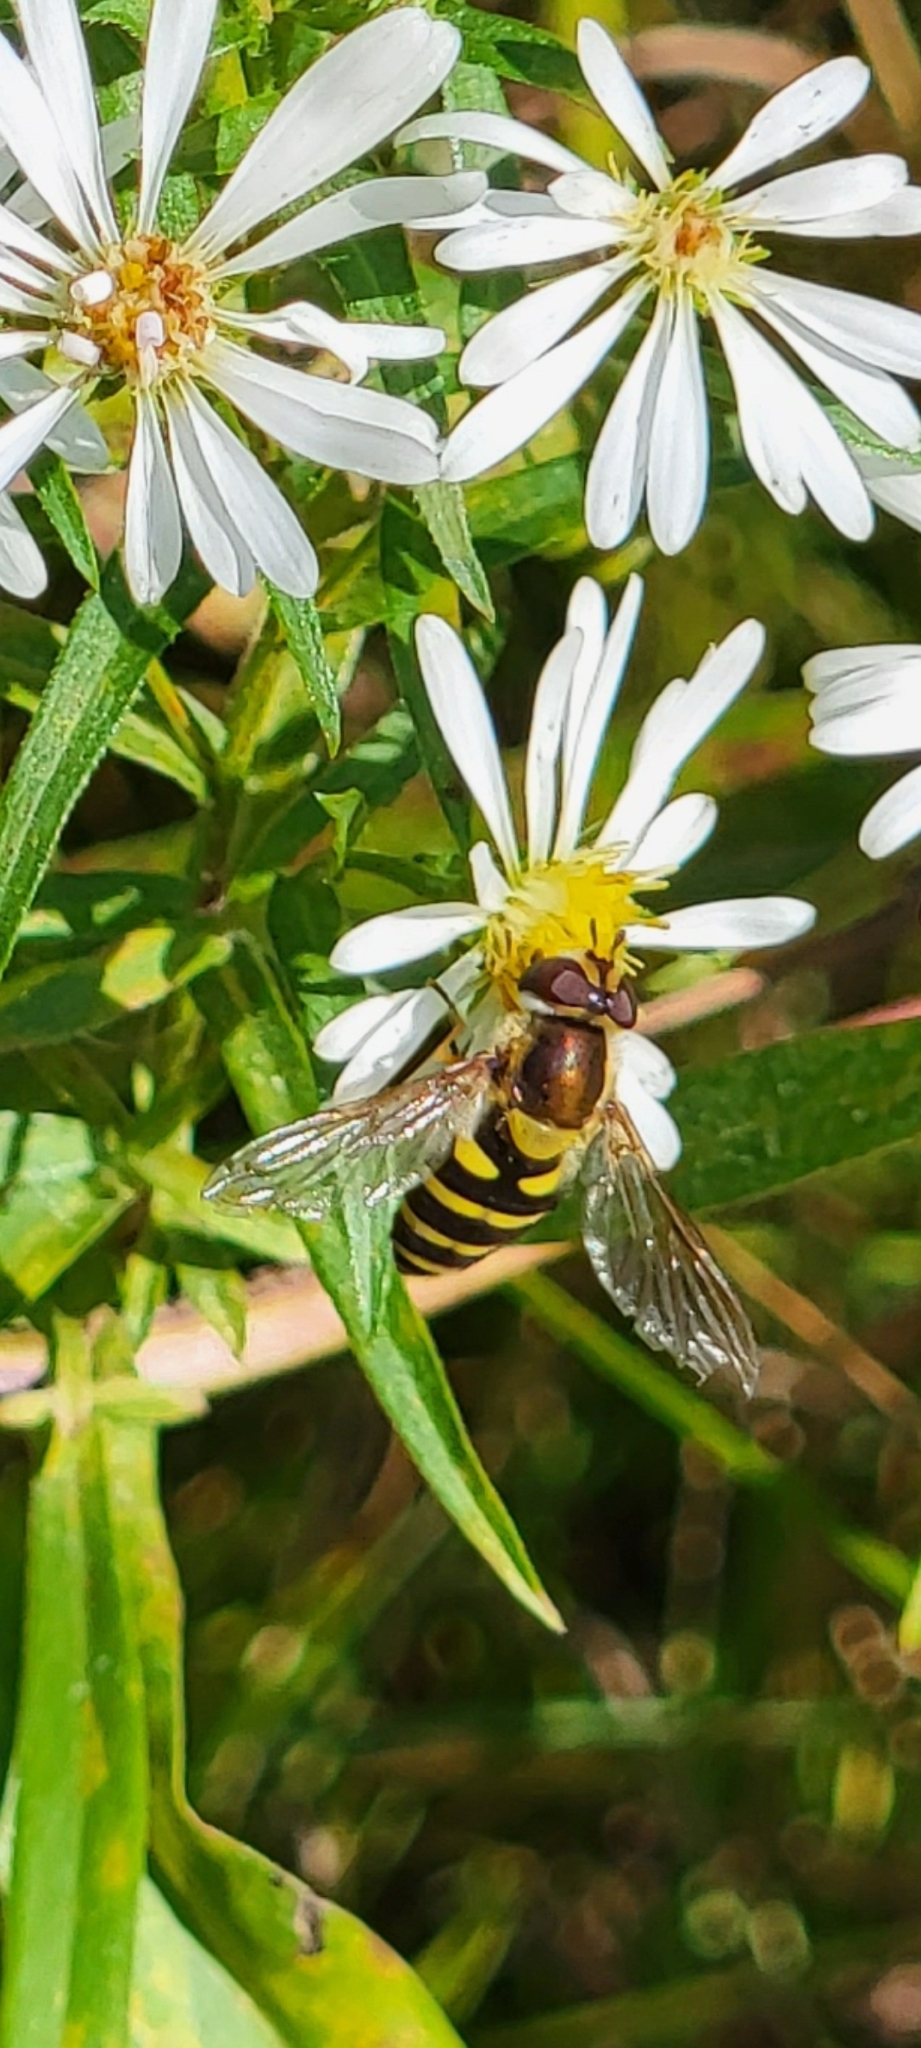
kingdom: Animalia
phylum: Arthropoda
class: Insecta
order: Diptera
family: Syrphidae
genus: Syrphus
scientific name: Syrphus
